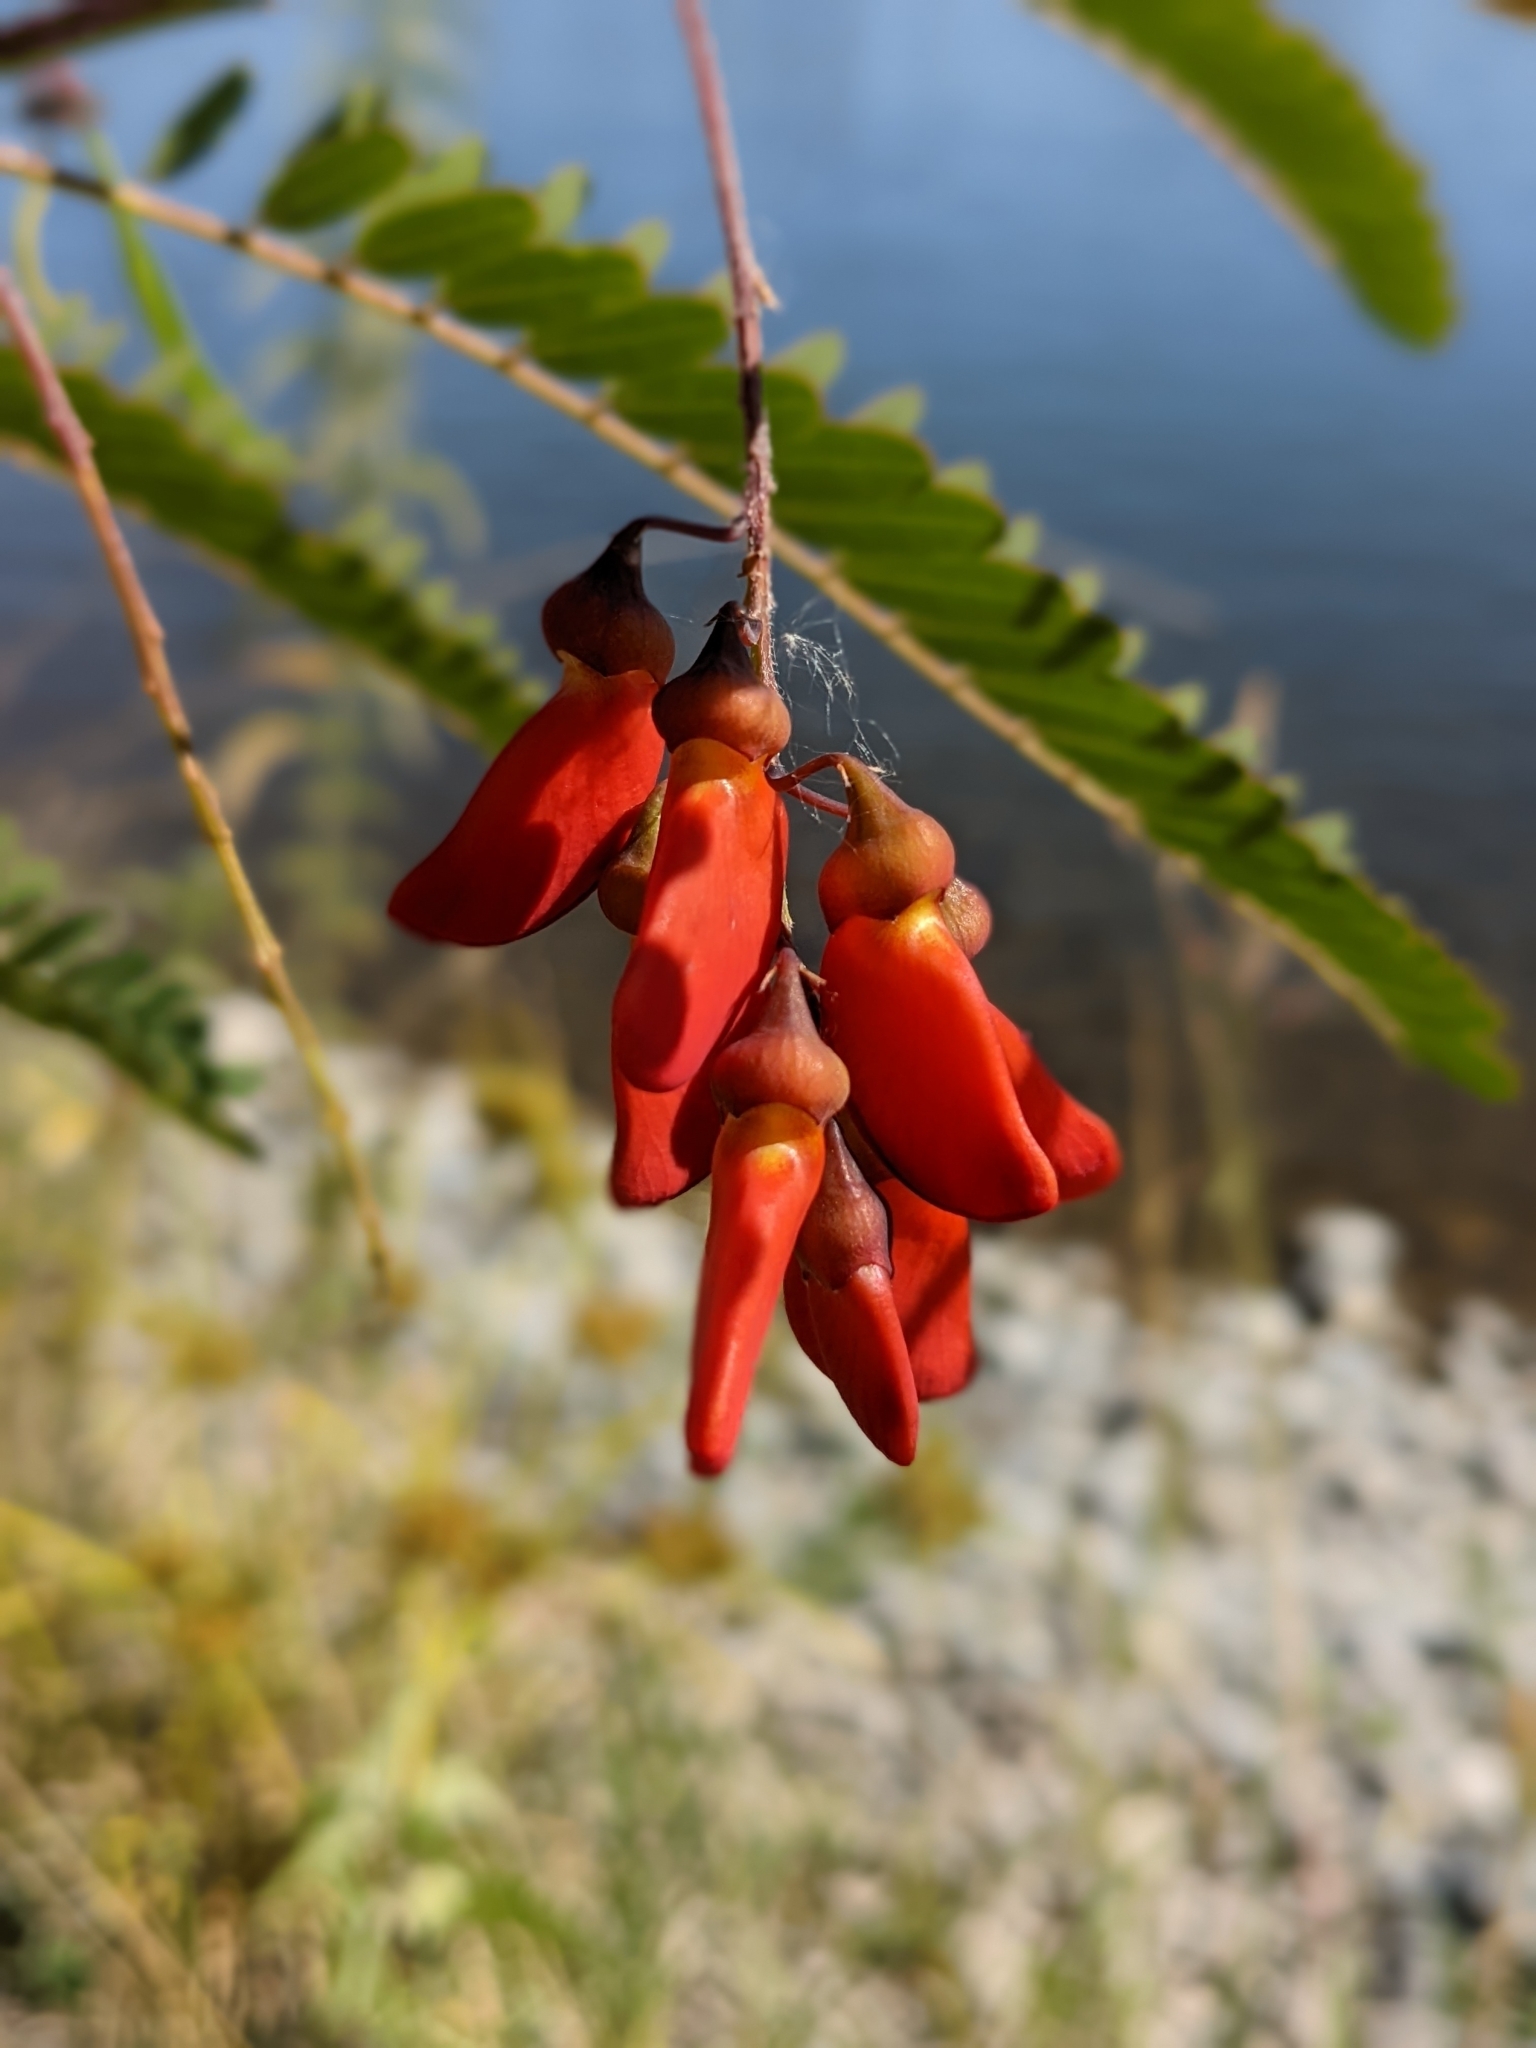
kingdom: Plantae
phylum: Tracheophyta
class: Magnoliopsida
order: Fabales
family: Fabaceae
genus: Sesbania
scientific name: Sesbania punicea
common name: Rattlebox
